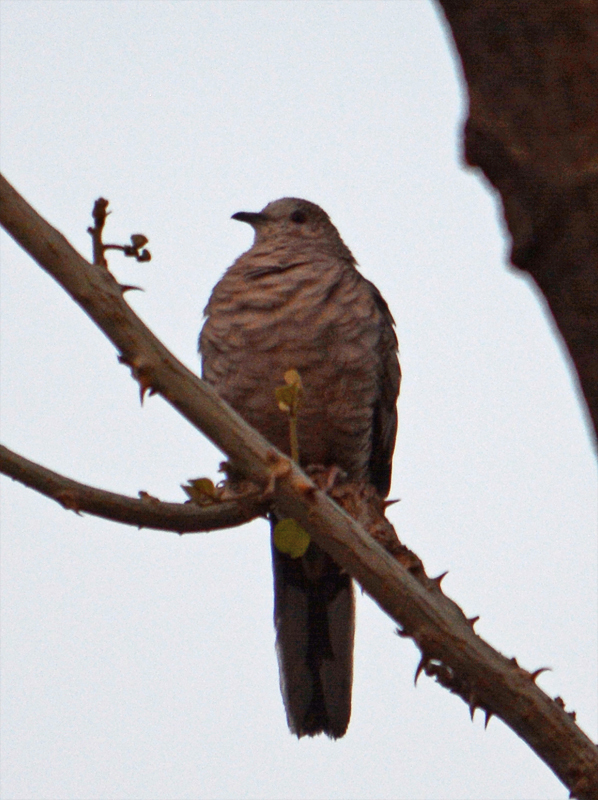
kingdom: Animalia
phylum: Chordata
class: Aves
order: Columbiformes
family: Columbidae
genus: Columbina
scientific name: Columbina inca
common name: Inca dove
